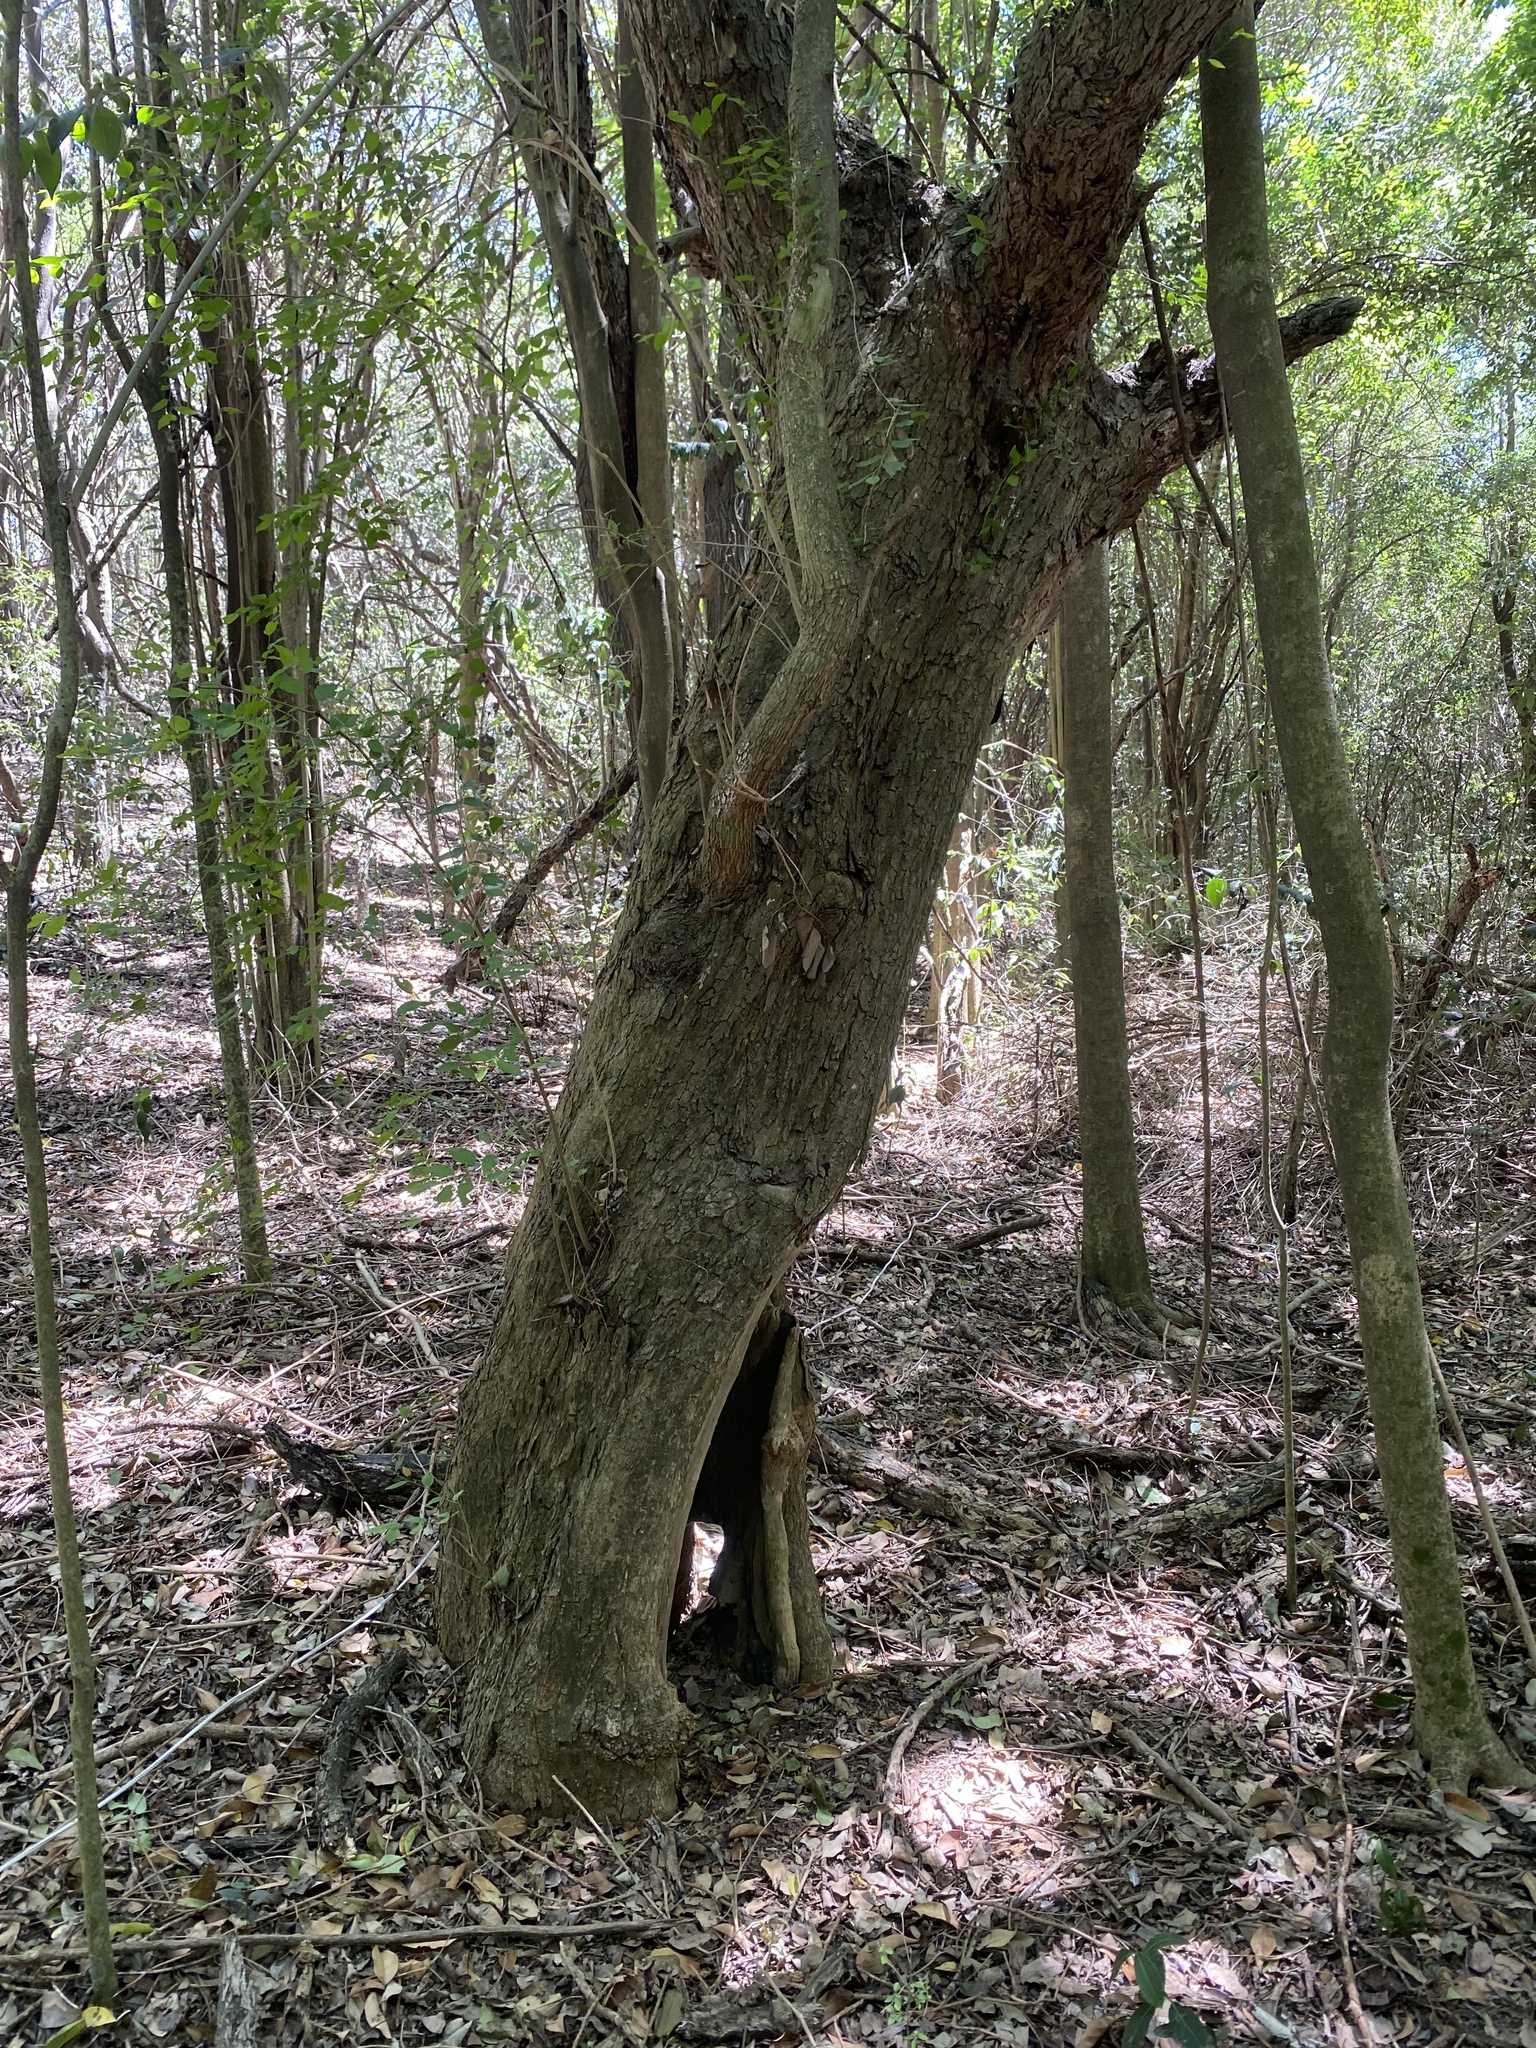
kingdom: Plantae
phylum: Tracheophyta
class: Magnoliopsida
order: Rosales
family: Cannabaceae
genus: Celtis
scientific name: Celtis tala
